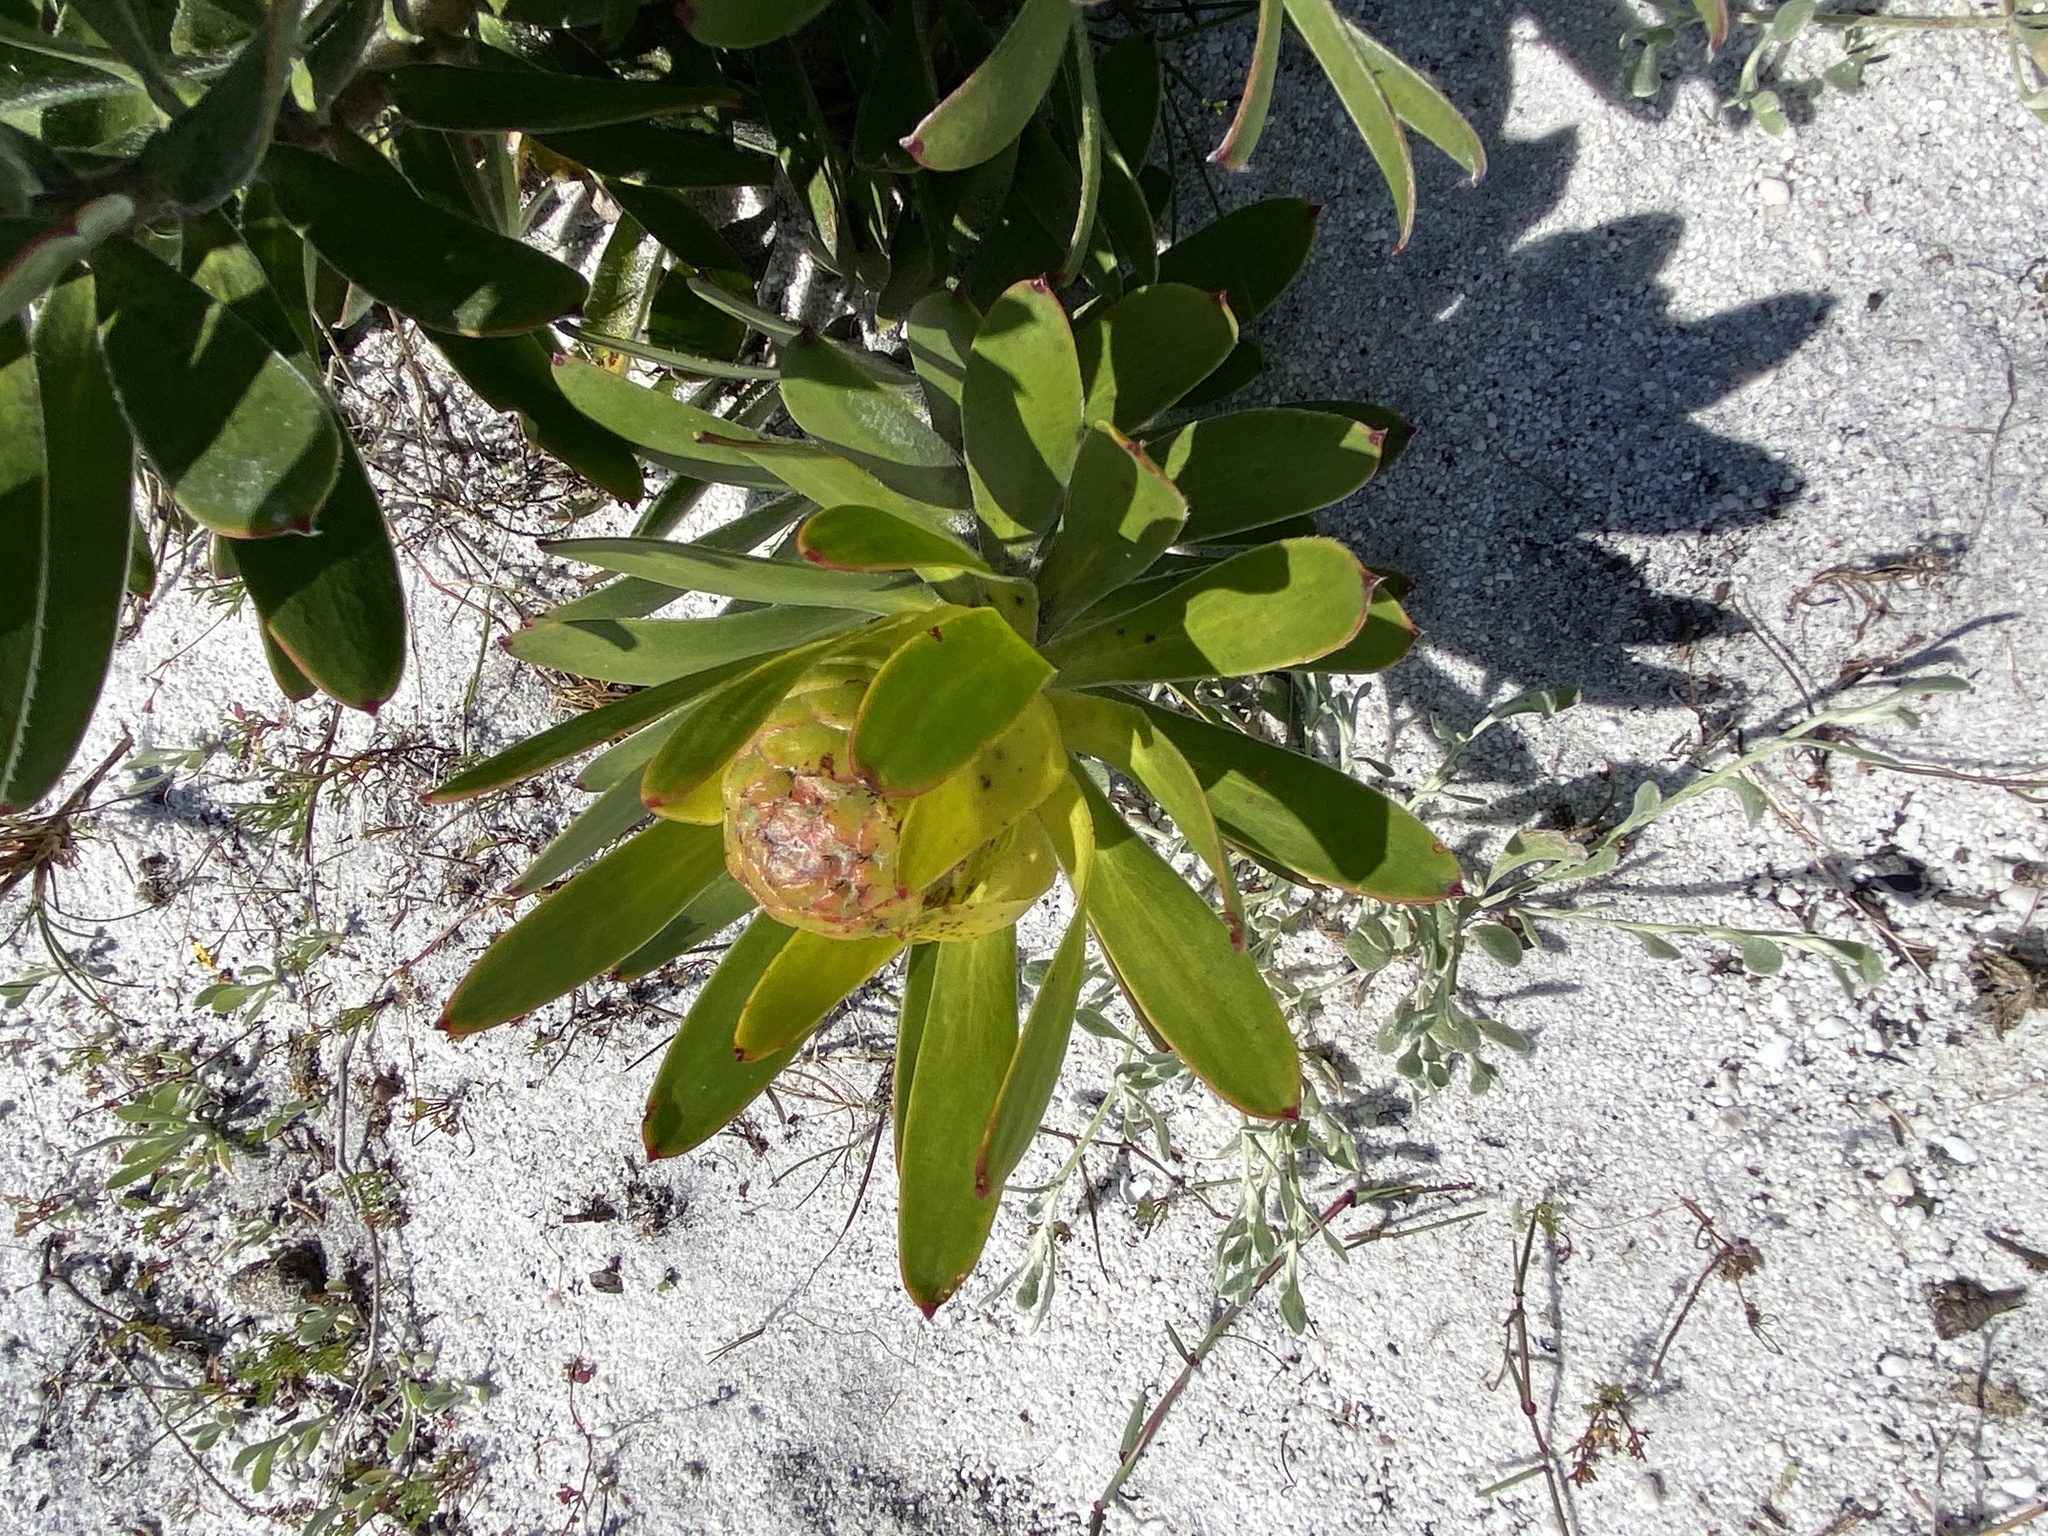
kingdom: Plantae
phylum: Tracheophyta
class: Magnoliopsida
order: Proteales
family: Proteaceae
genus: Leucadendron
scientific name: Leucadendron laureolum
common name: Golden sunshinebush
